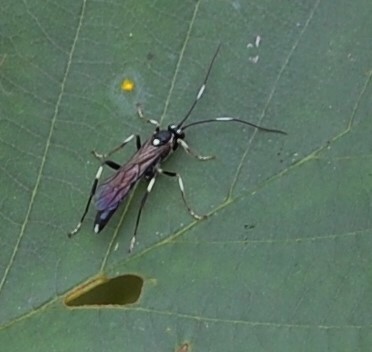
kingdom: Animalia
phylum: Arthropoda
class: Insecta
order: Hymenoptera
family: Ichneumonidae
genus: Achaius
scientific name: Achaius oratorius
